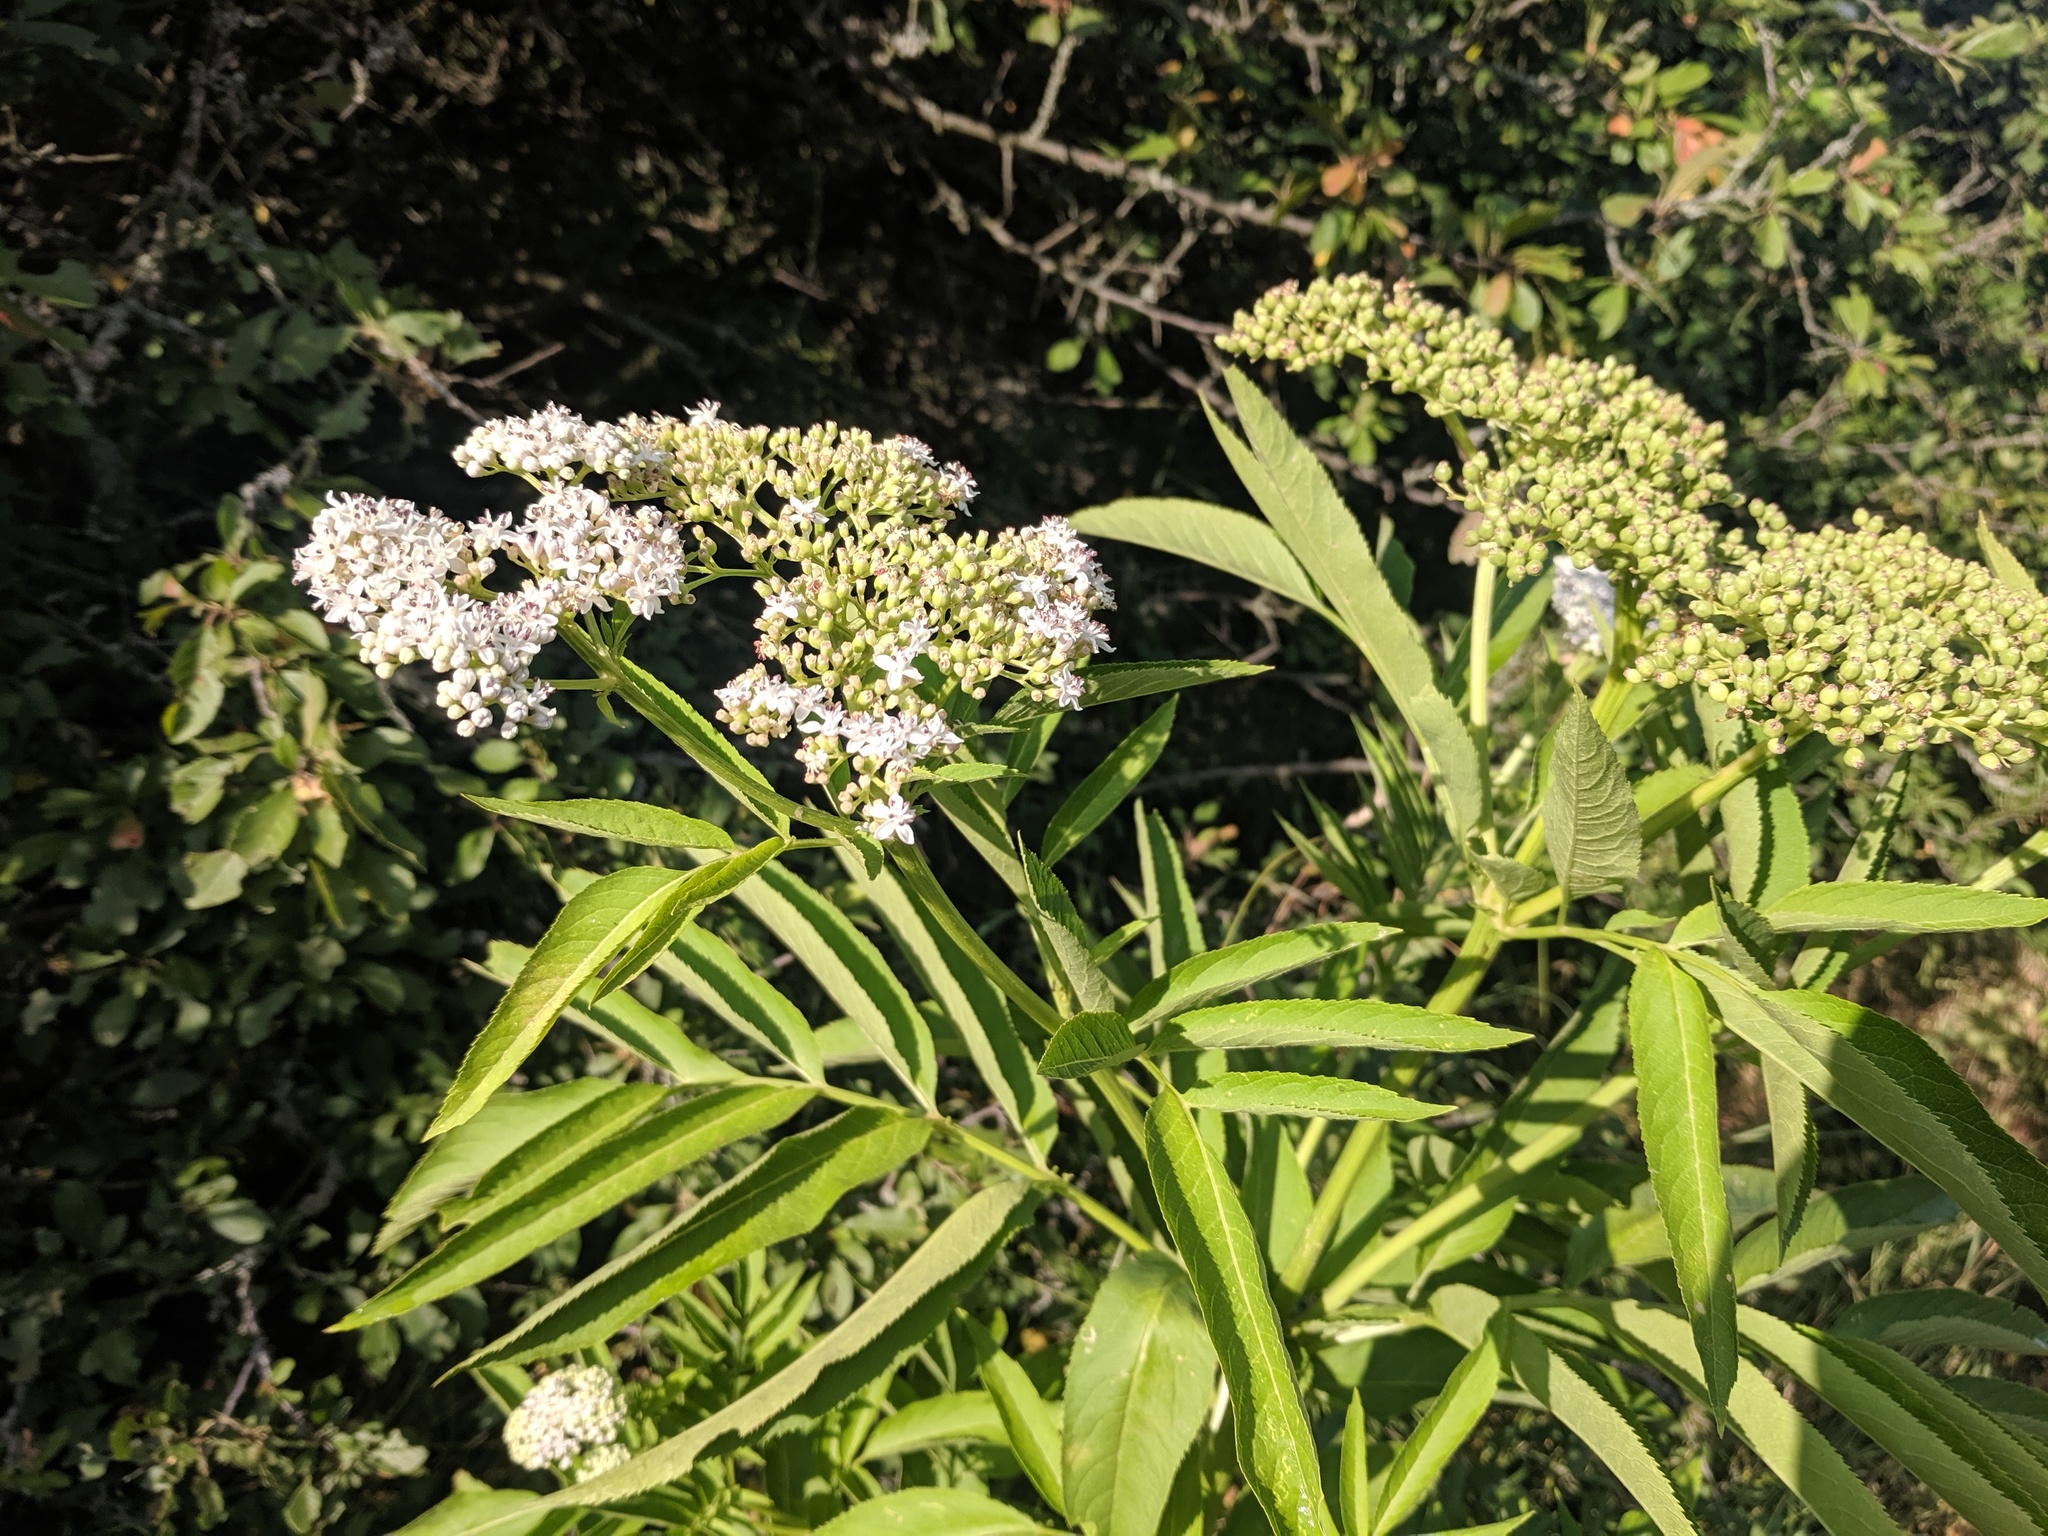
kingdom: Plantae
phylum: Tracheophyta
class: Magnoliopsida
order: Dipsacales
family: Viburnaceae
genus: Sambucus
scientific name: Sambucus ebulus
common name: Dwarf elder
